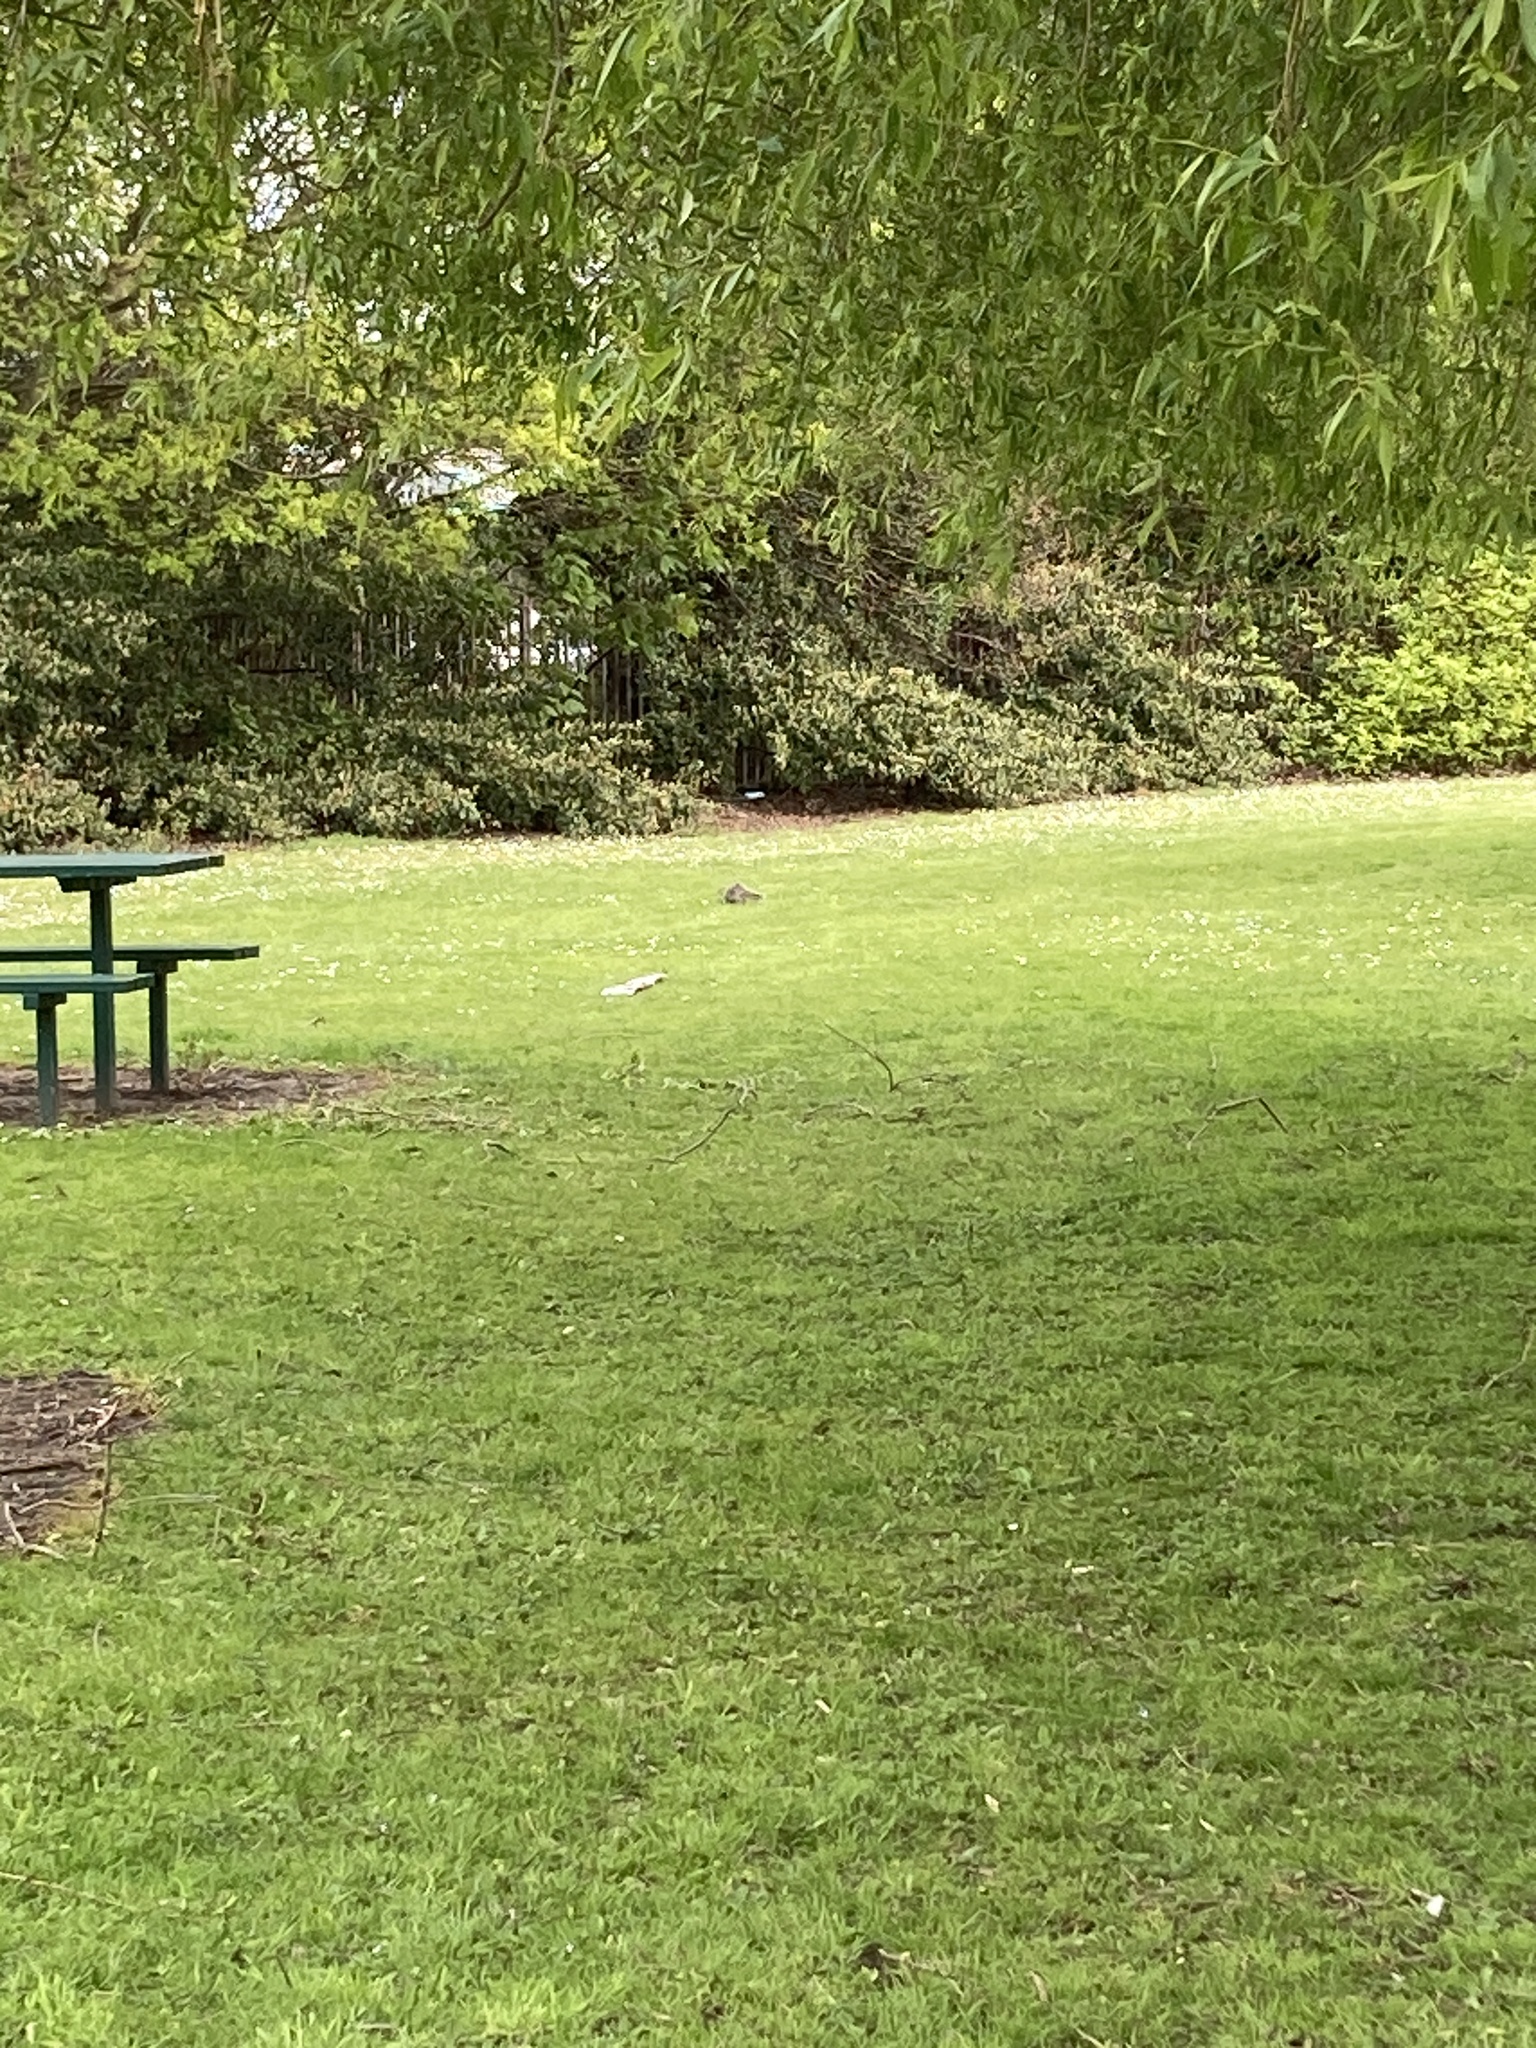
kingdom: Animalia
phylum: Chordata
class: Mammalia
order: Rodentia
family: Sciuridae
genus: Sciurus
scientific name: Sciurus carolinensis
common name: Eastern gray squirrel
